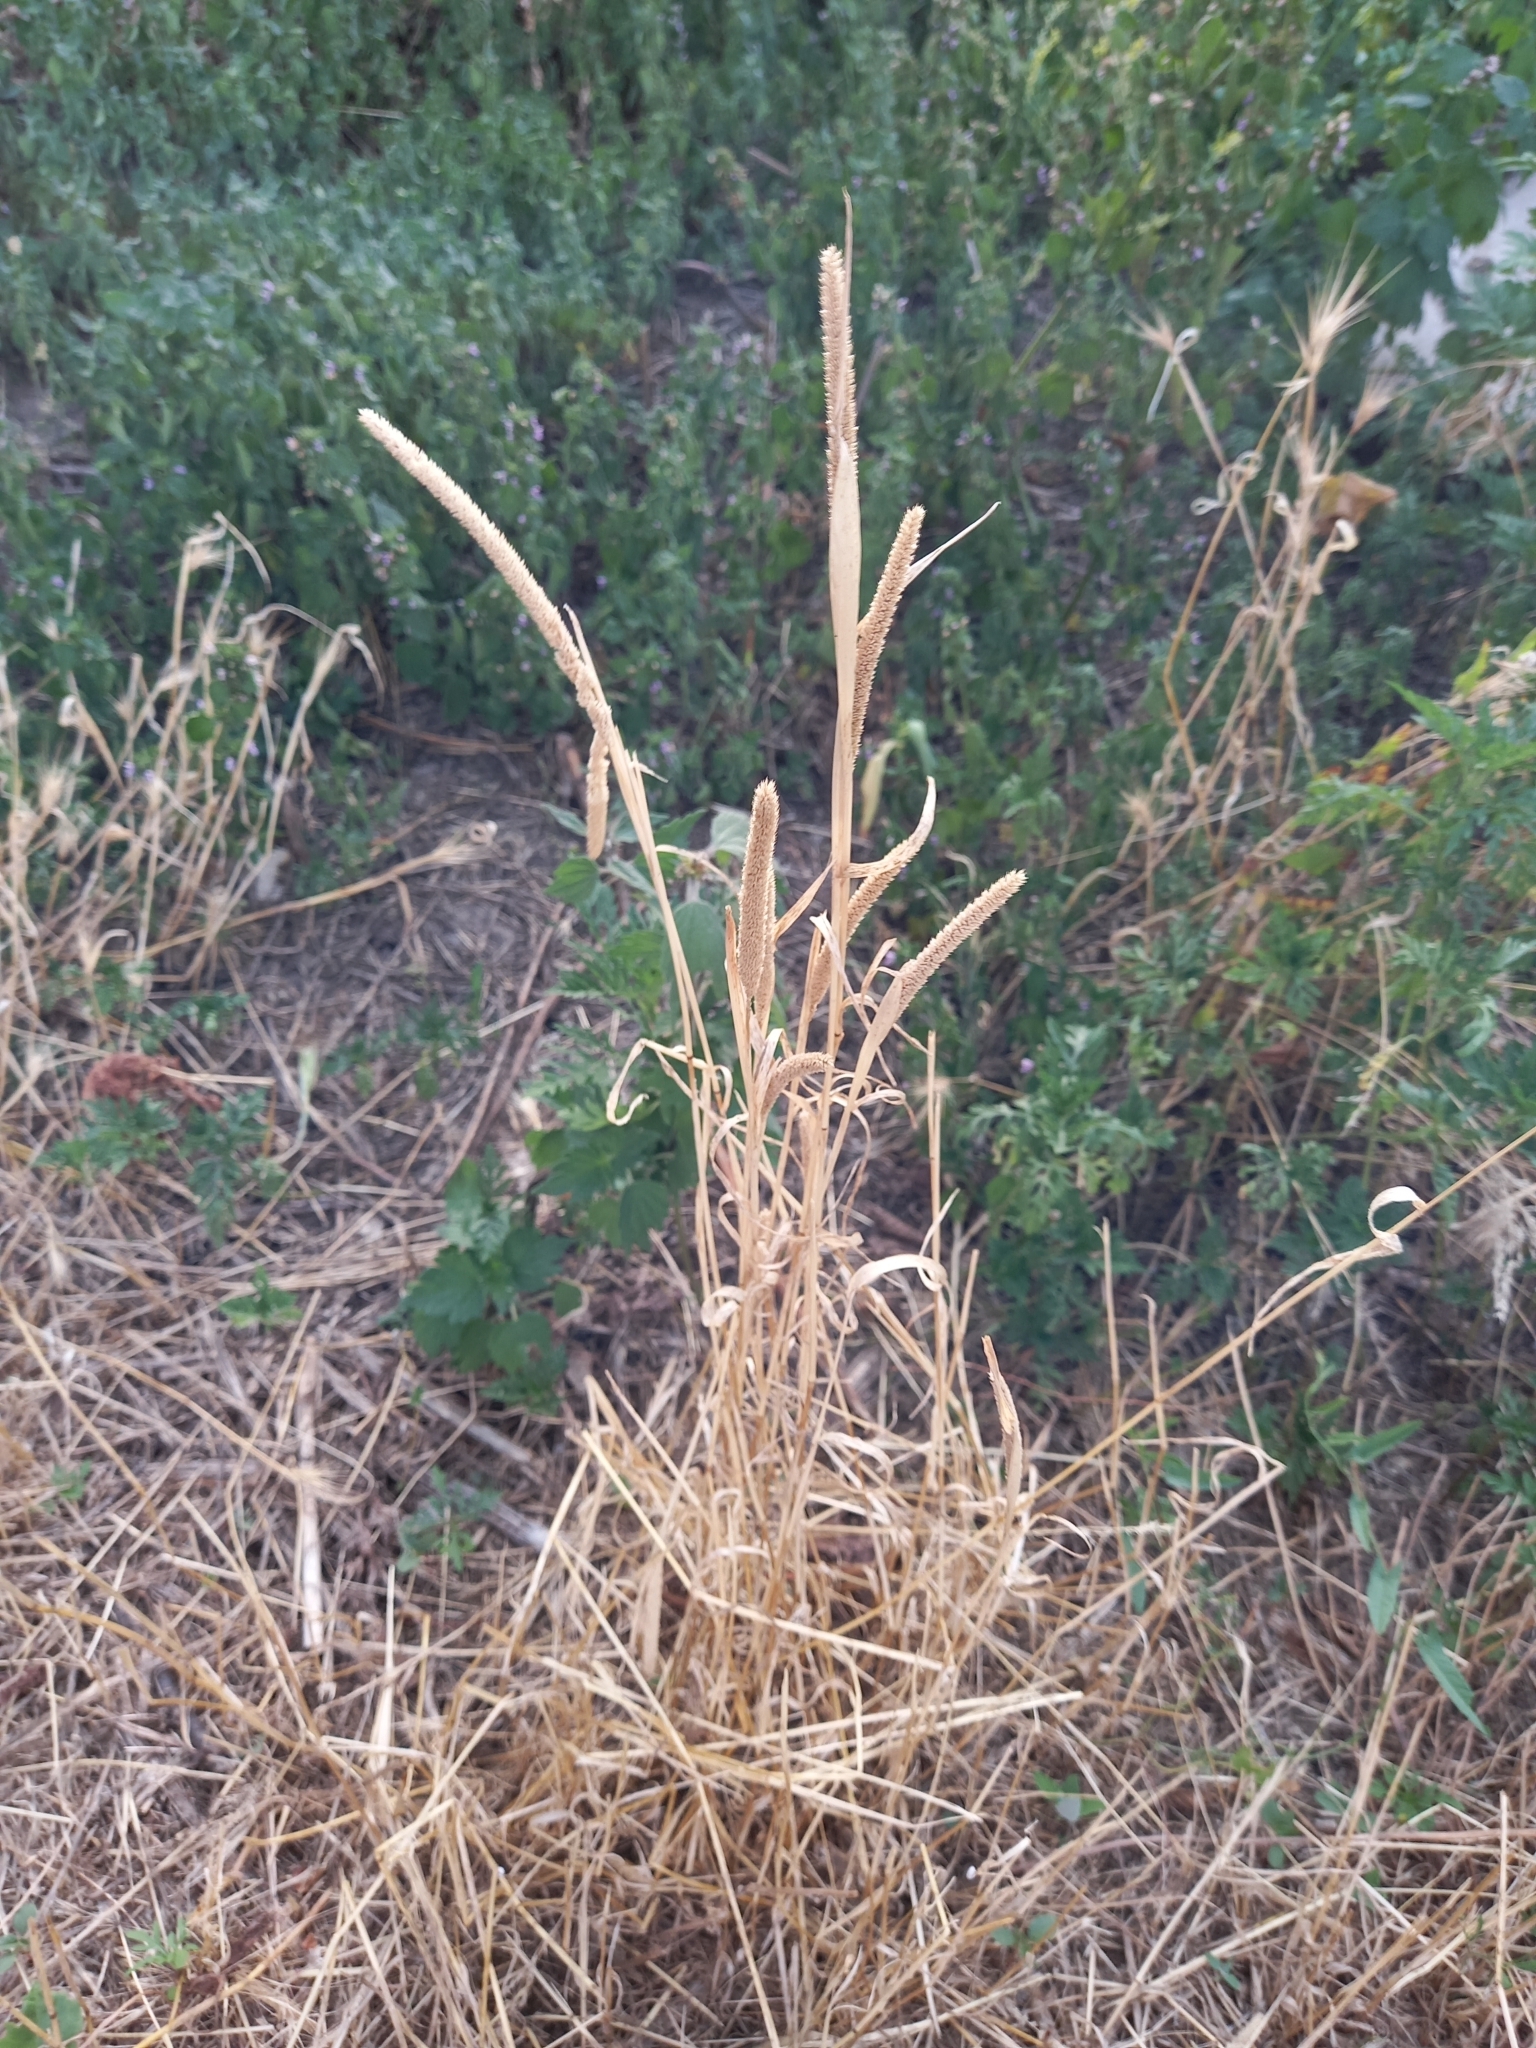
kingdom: Plantae
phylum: Tracheophyta
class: Liliopsida
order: Poales
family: Poaceae
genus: Phleum
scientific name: Phleum pratense
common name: Timothy grass
